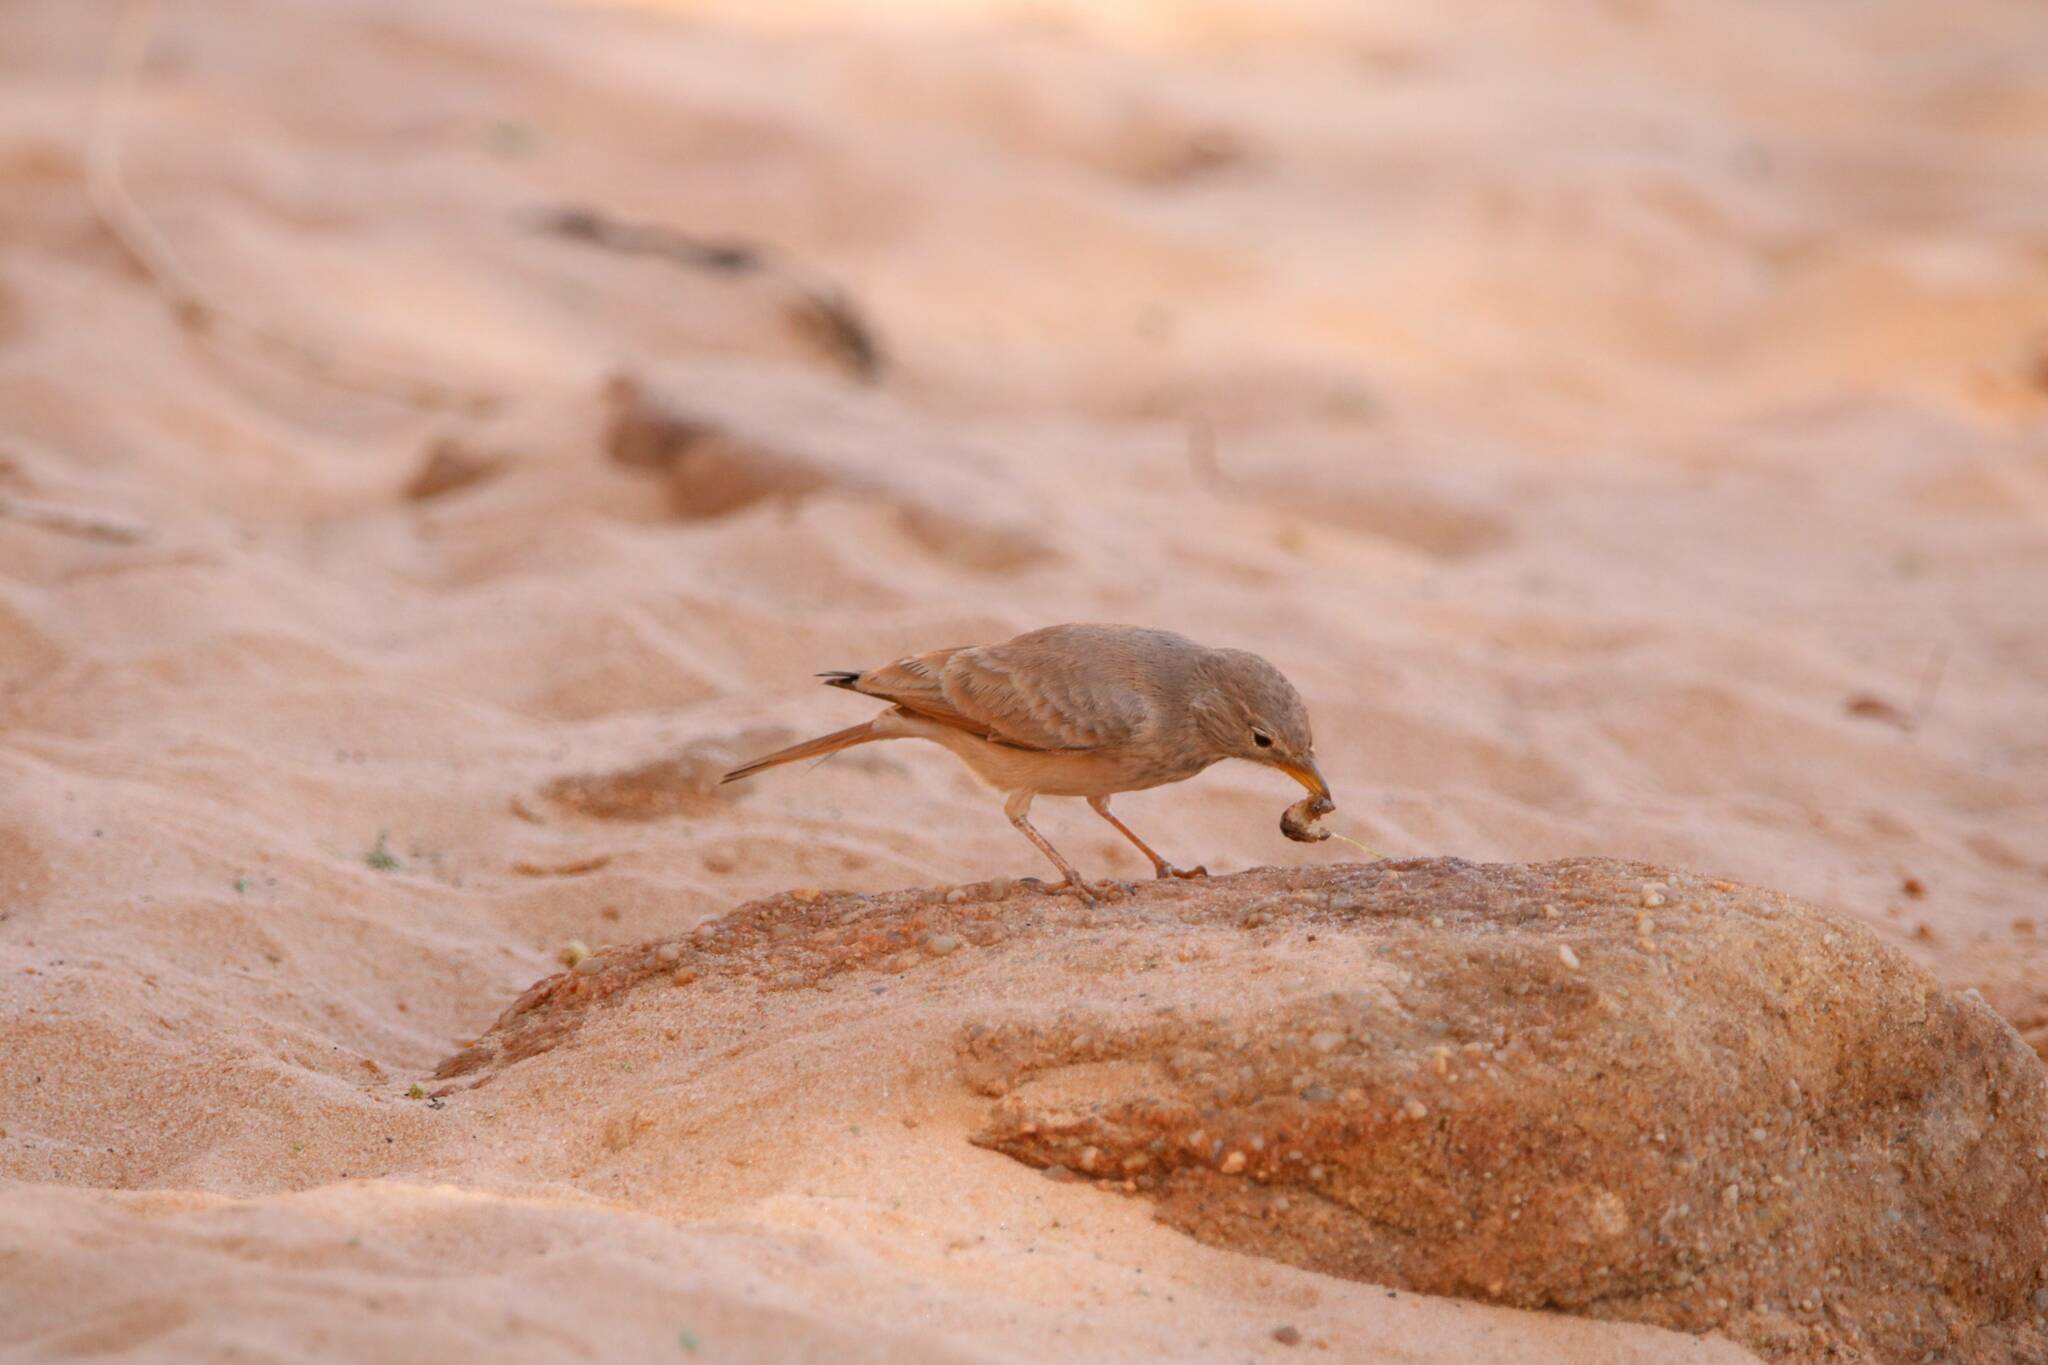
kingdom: Animalia
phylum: Chordata
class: Aves
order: Passeriformes
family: Alaudidae
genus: Ammomanes
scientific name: Ammomanes deserti
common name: Desert lark
